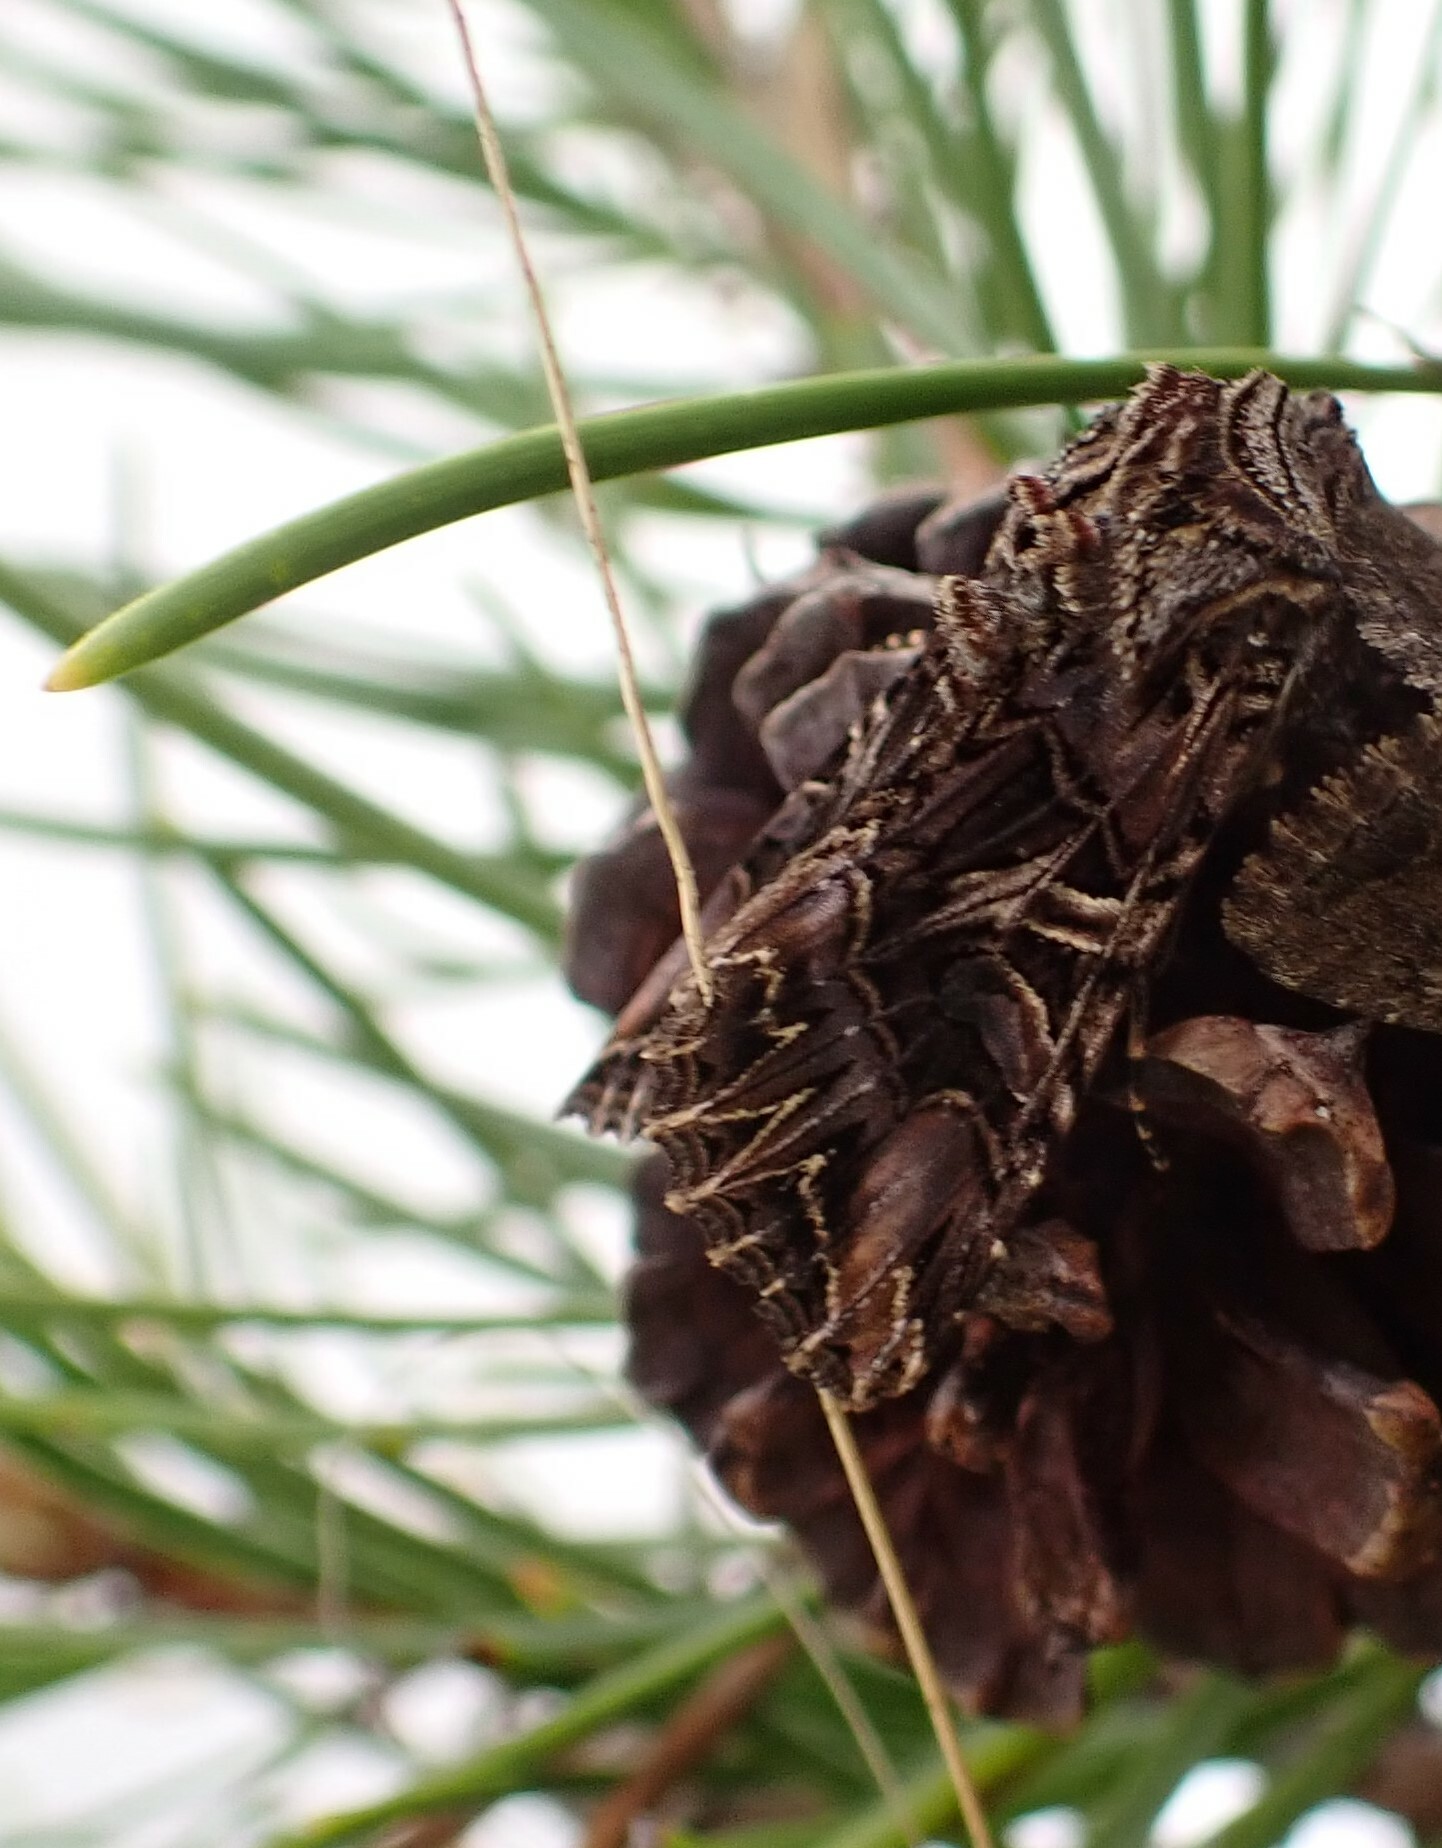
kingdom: Animalia
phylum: Arthropoda
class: Insecta
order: Lepidoptera
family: Noctuidae
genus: Anarta
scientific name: Anarta farnhami
